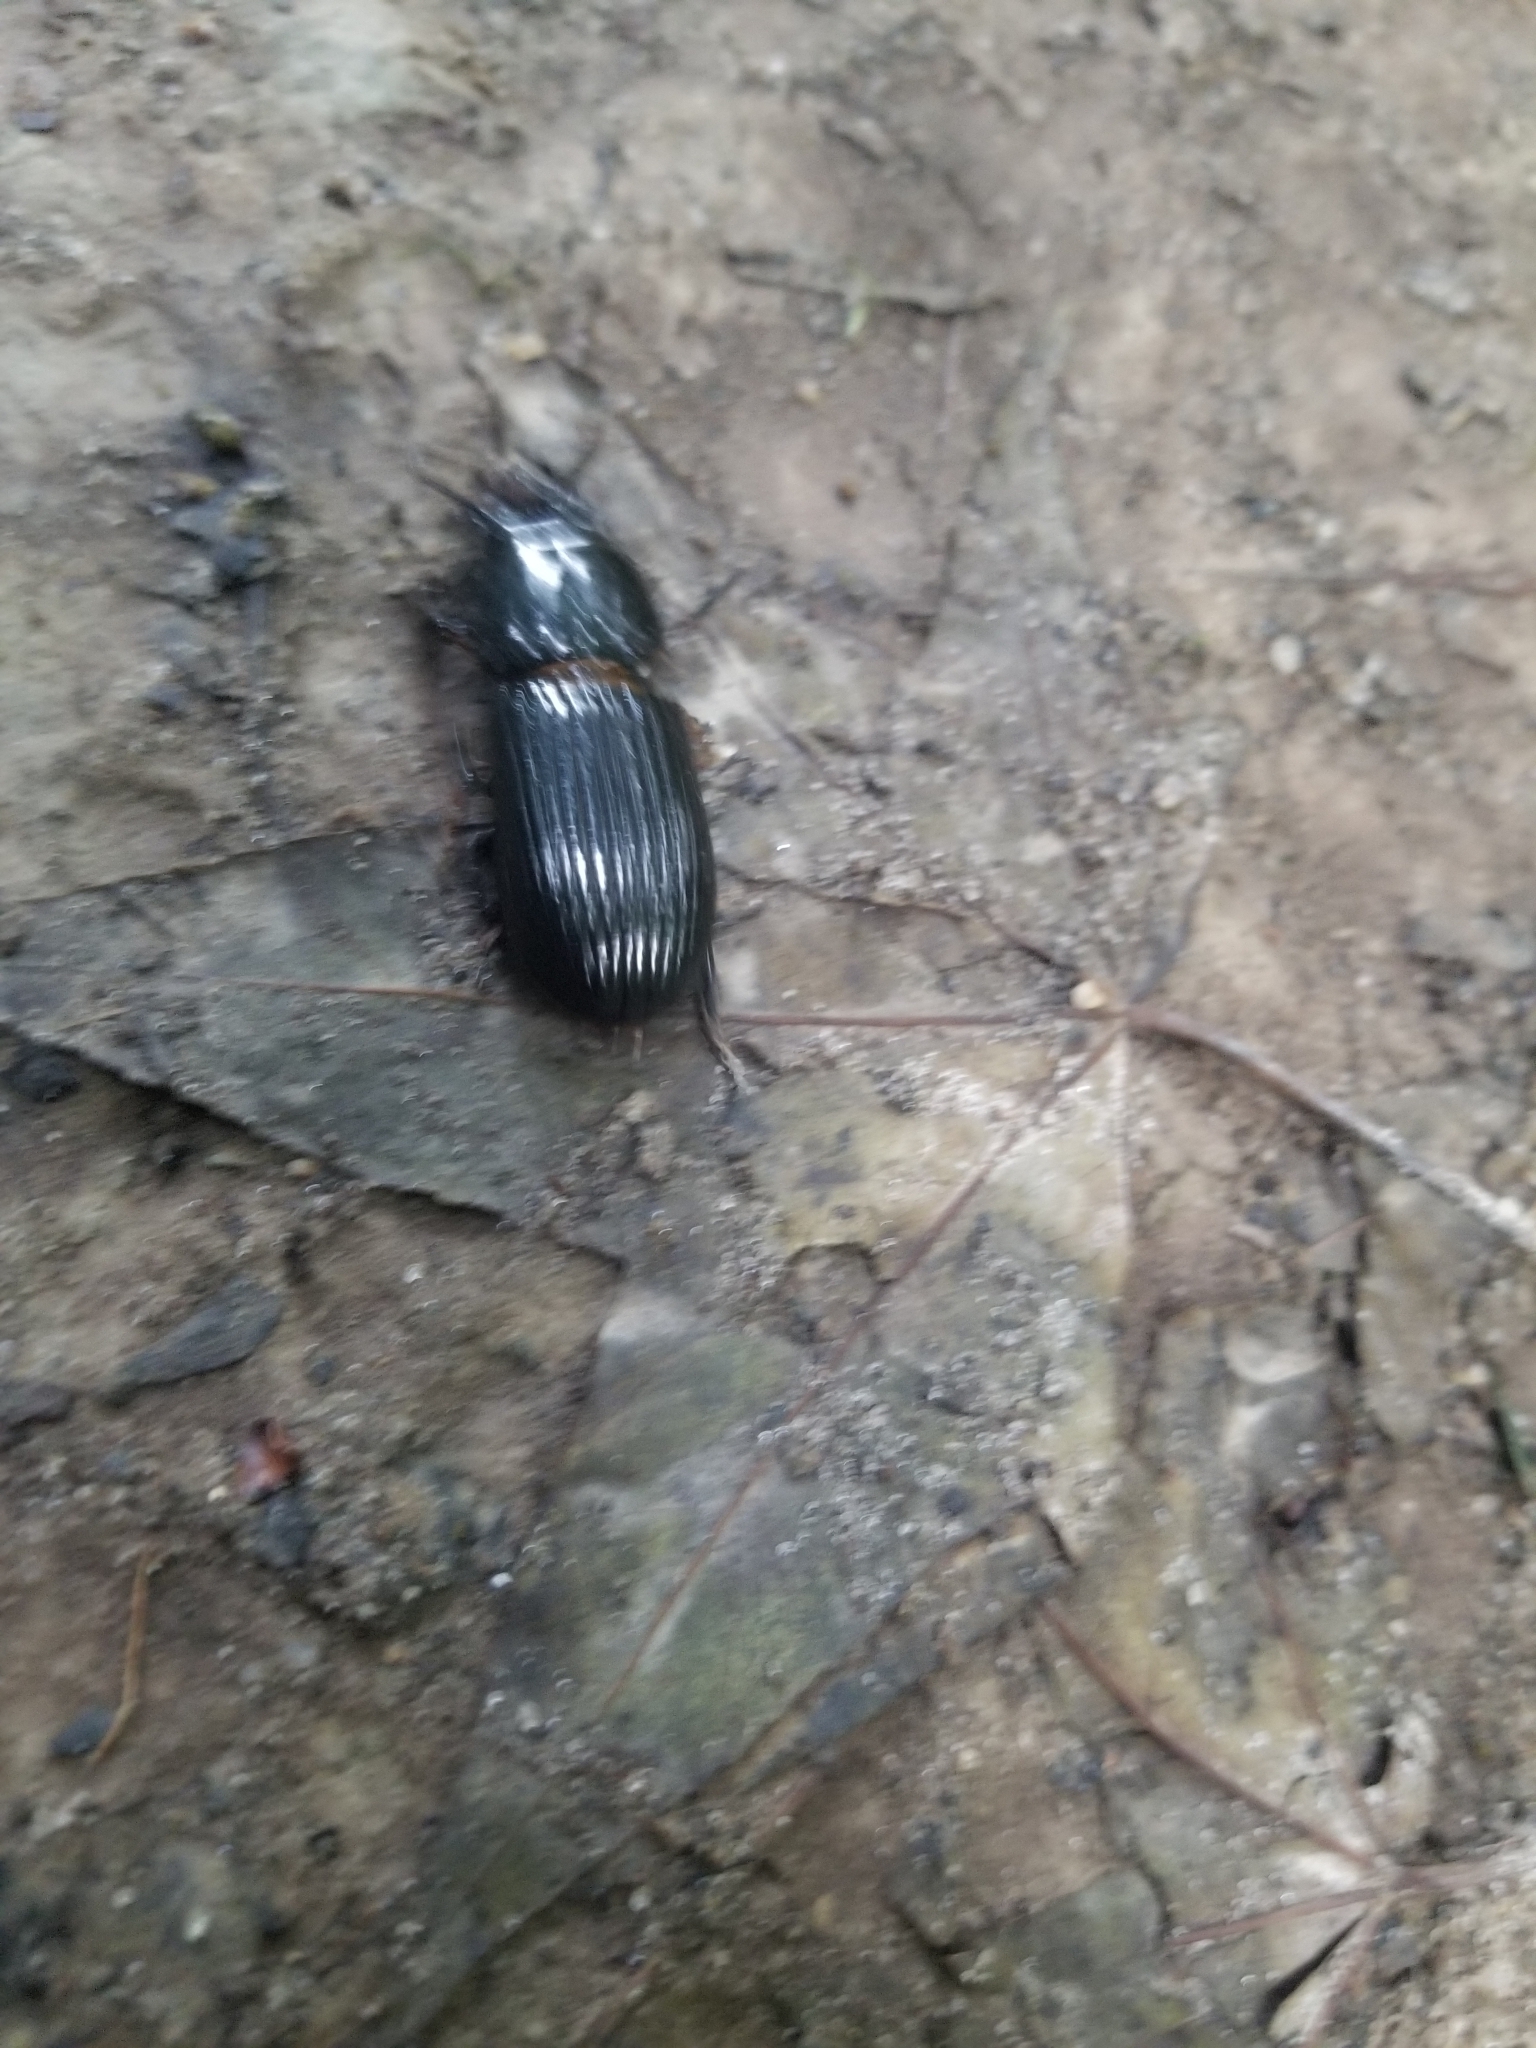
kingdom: Animalia
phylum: Arthropoda
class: Insecta
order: Coleoptera
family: Passalidae
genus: Odontotaenius
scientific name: Odontotaenius disjunctus
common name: Patent leather beetle
